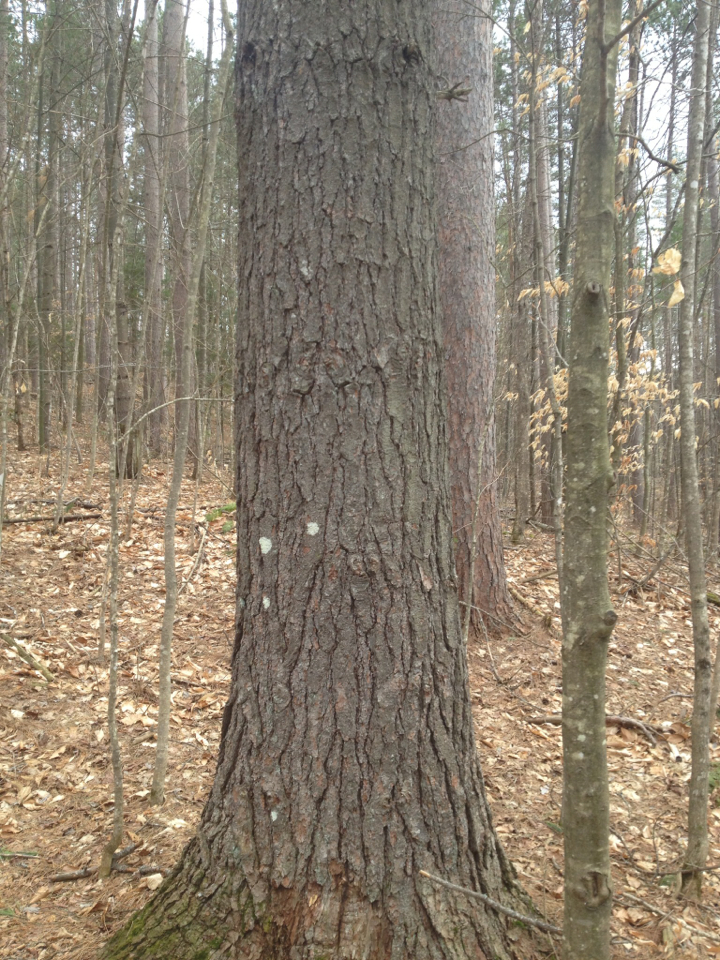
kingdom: Plantae
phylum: Tracheophyta
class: Pinopsida
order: Pinales
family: Pinaceae
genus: Pinus
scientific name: Pinus strobus
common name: Weymouth pine
